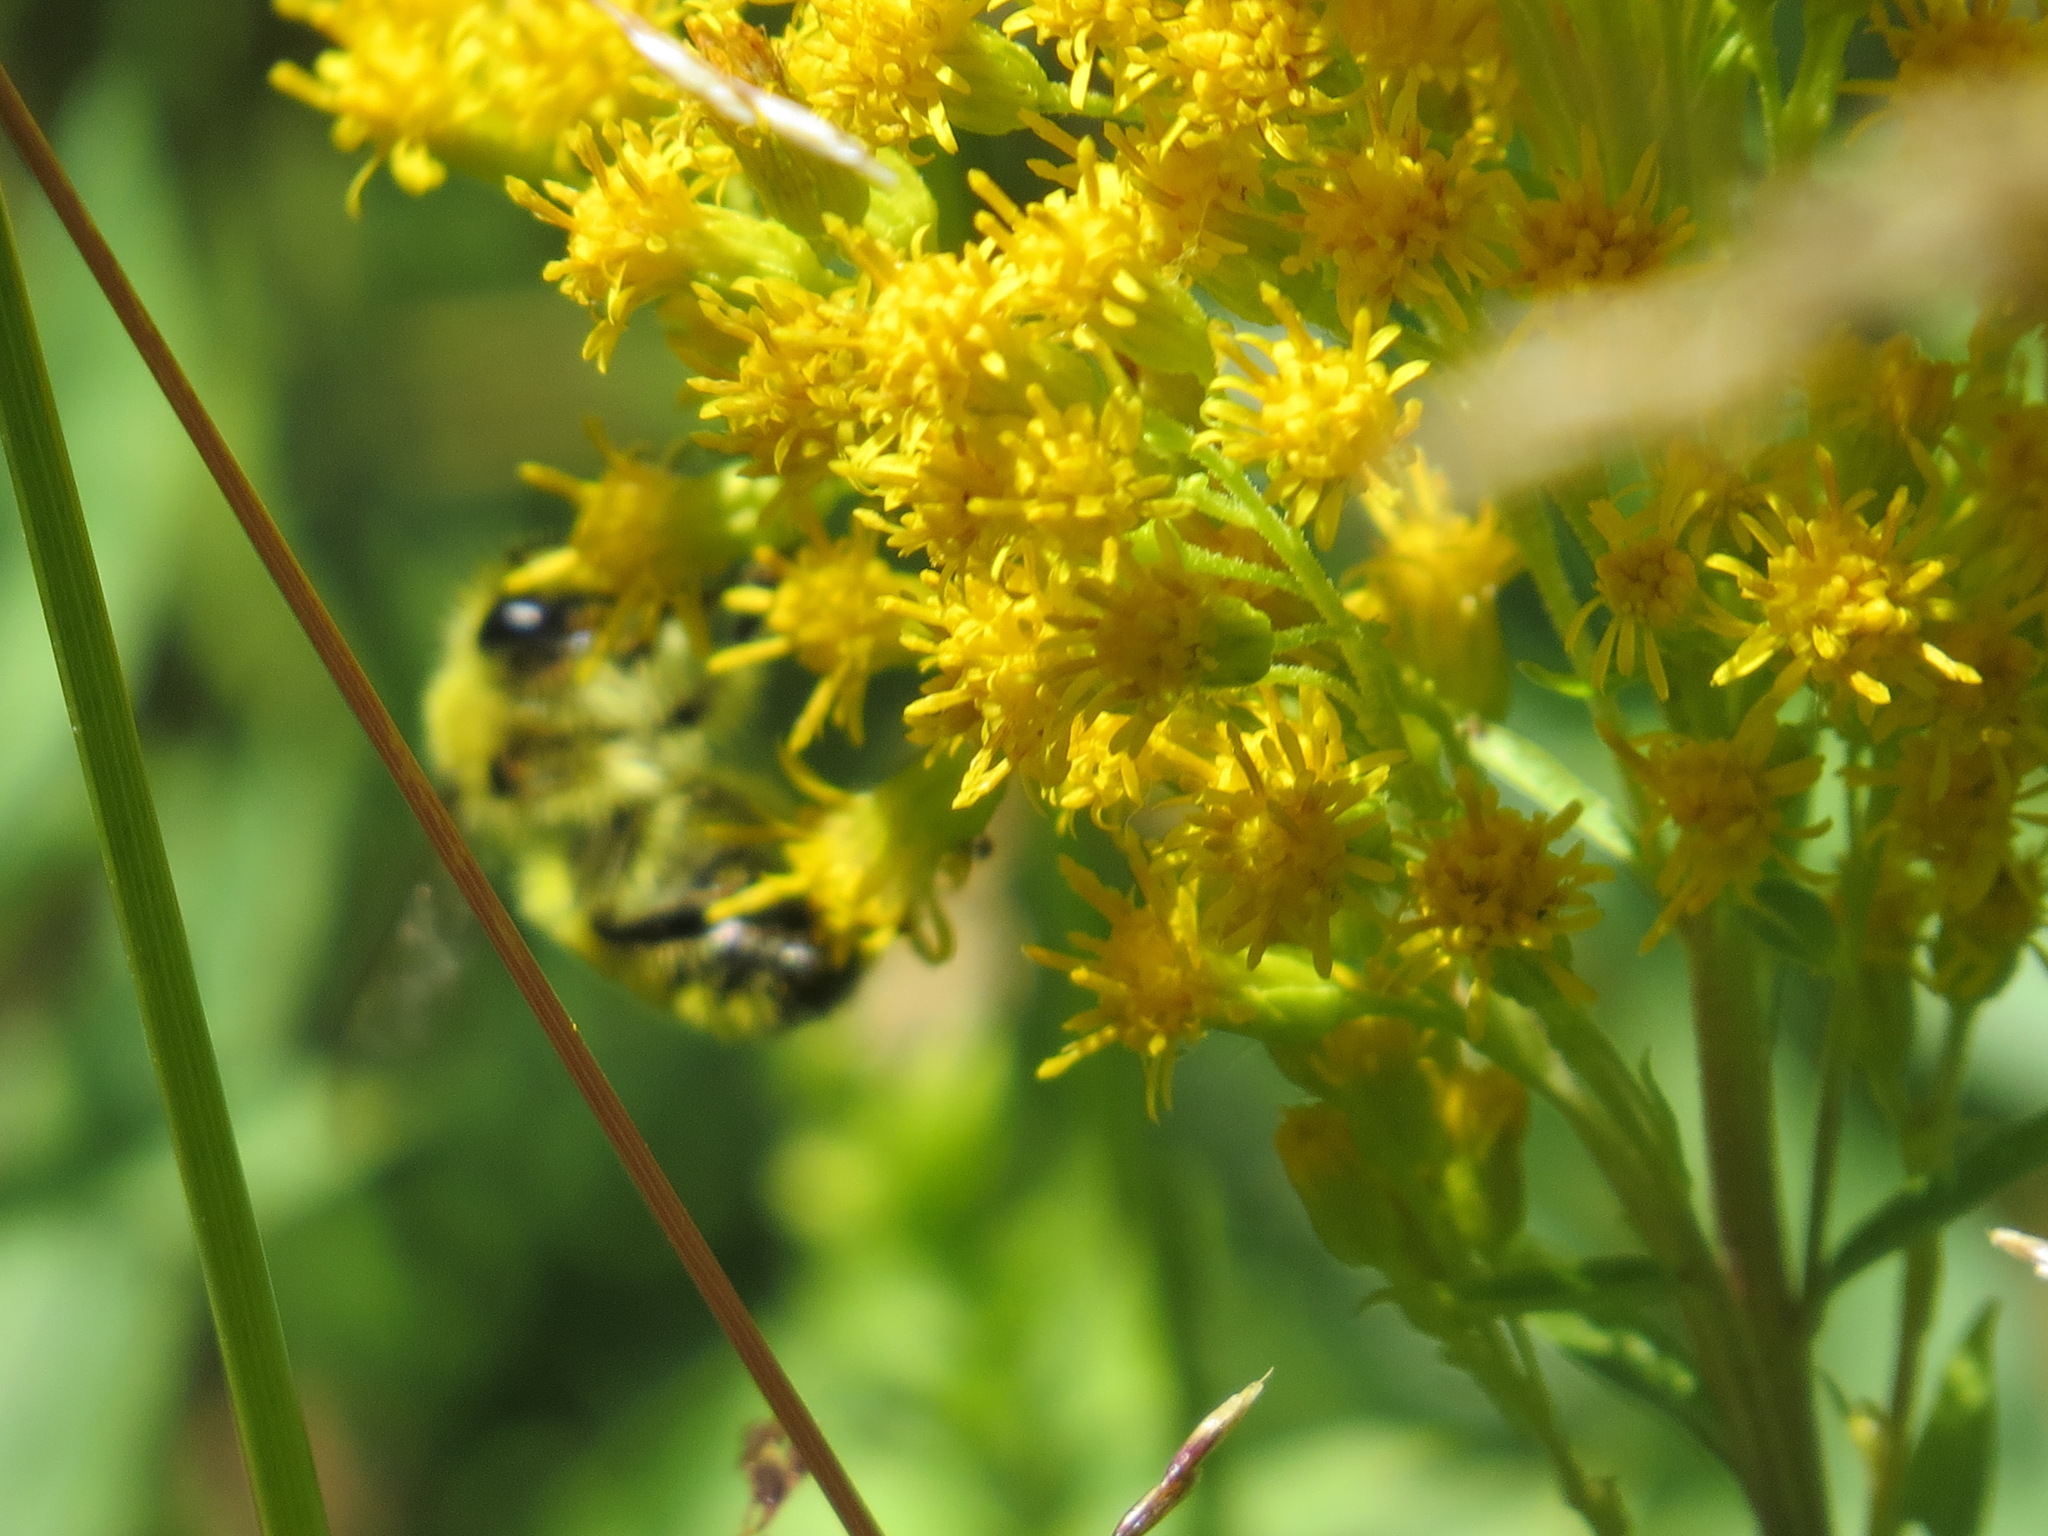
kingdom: Animalia
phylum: Arthropoda
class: Insecta
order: Hymenoptera
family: Apidae
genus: Bombus
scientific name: Bombus vandykei
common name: Van dyke bumble bee
